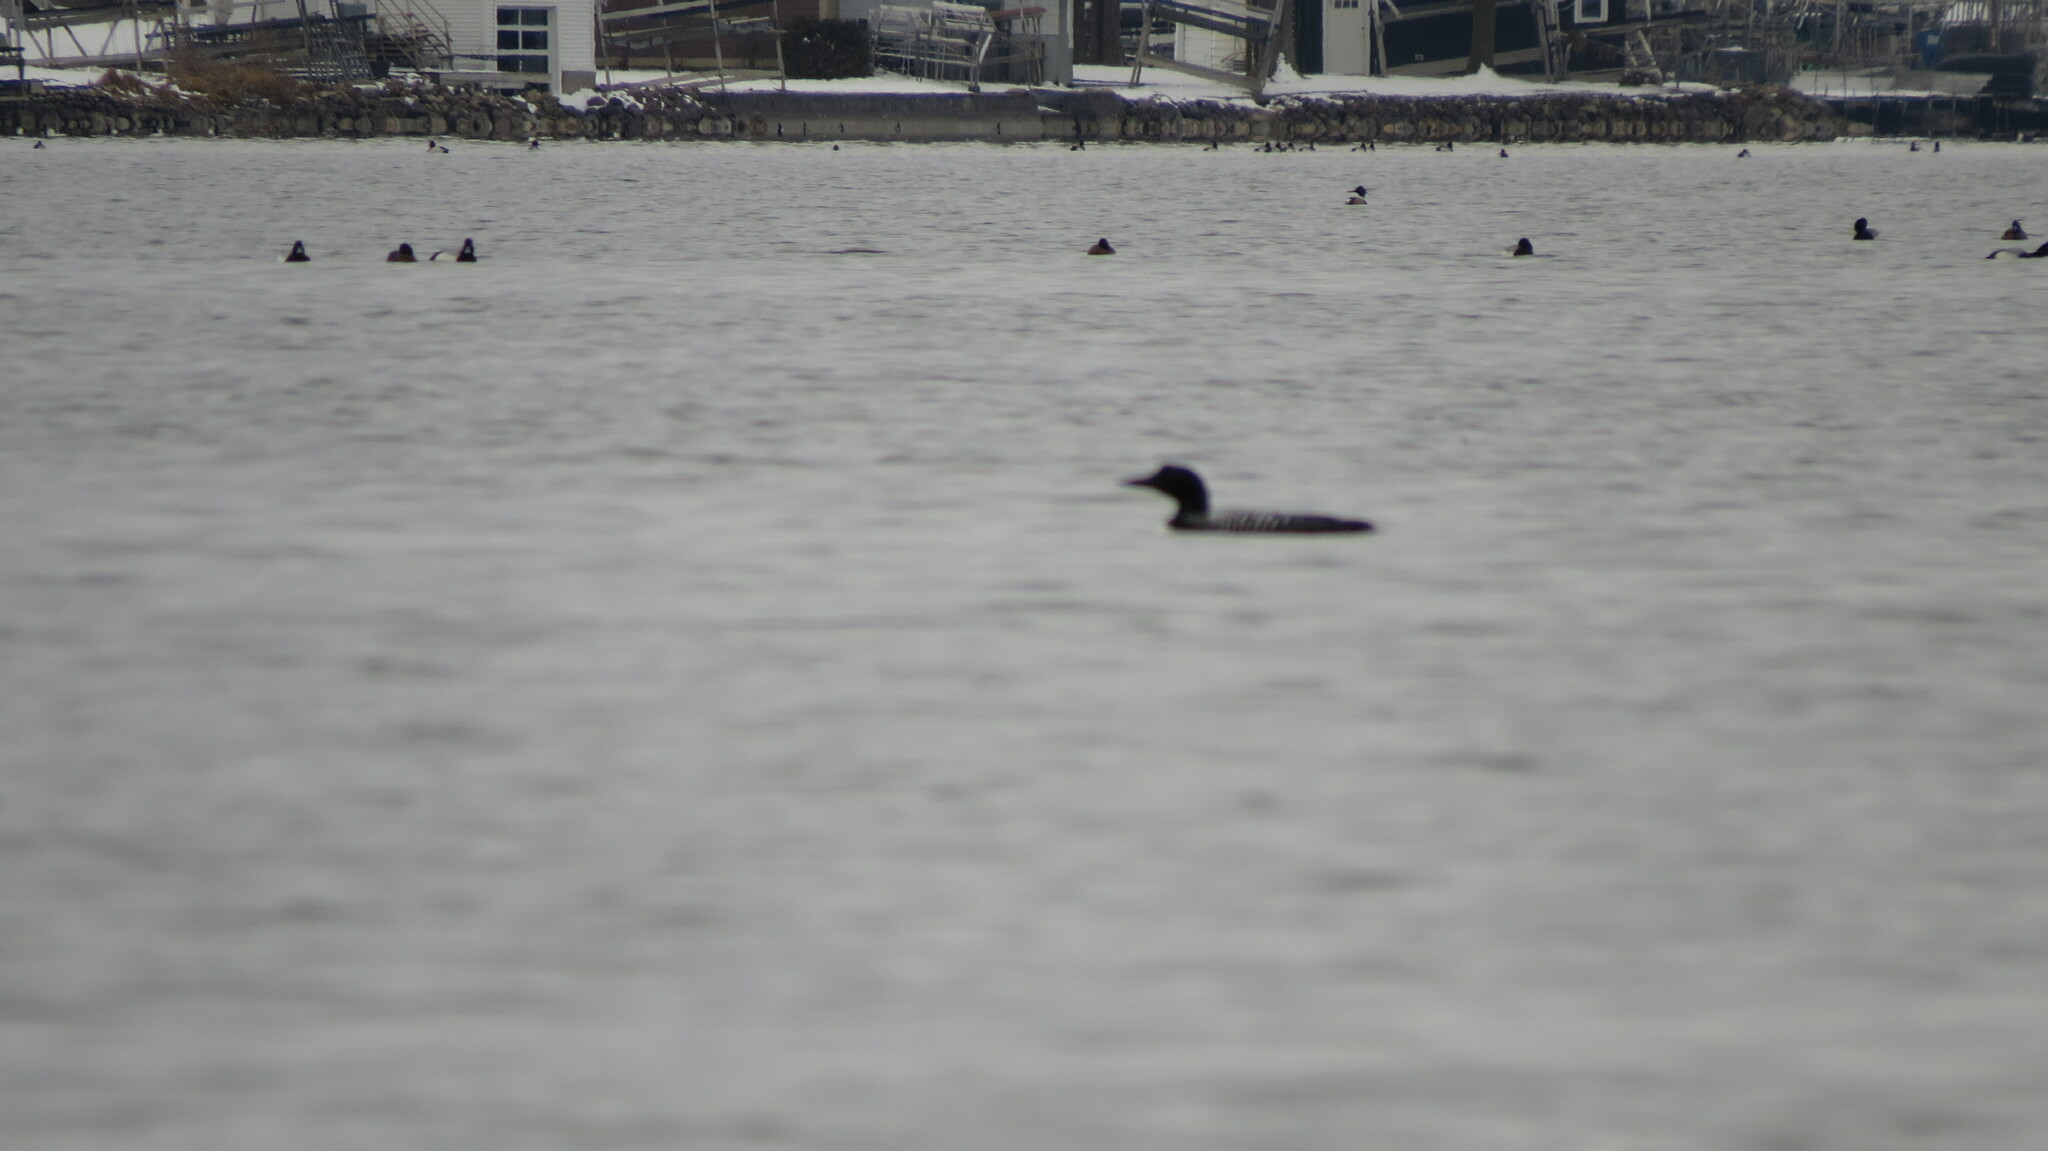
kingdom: Animalia
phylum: Chordata
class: Aves
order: Gaviiformes
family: Gaviidae
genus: Gavia
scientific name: Gavia immer
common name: Common loon
